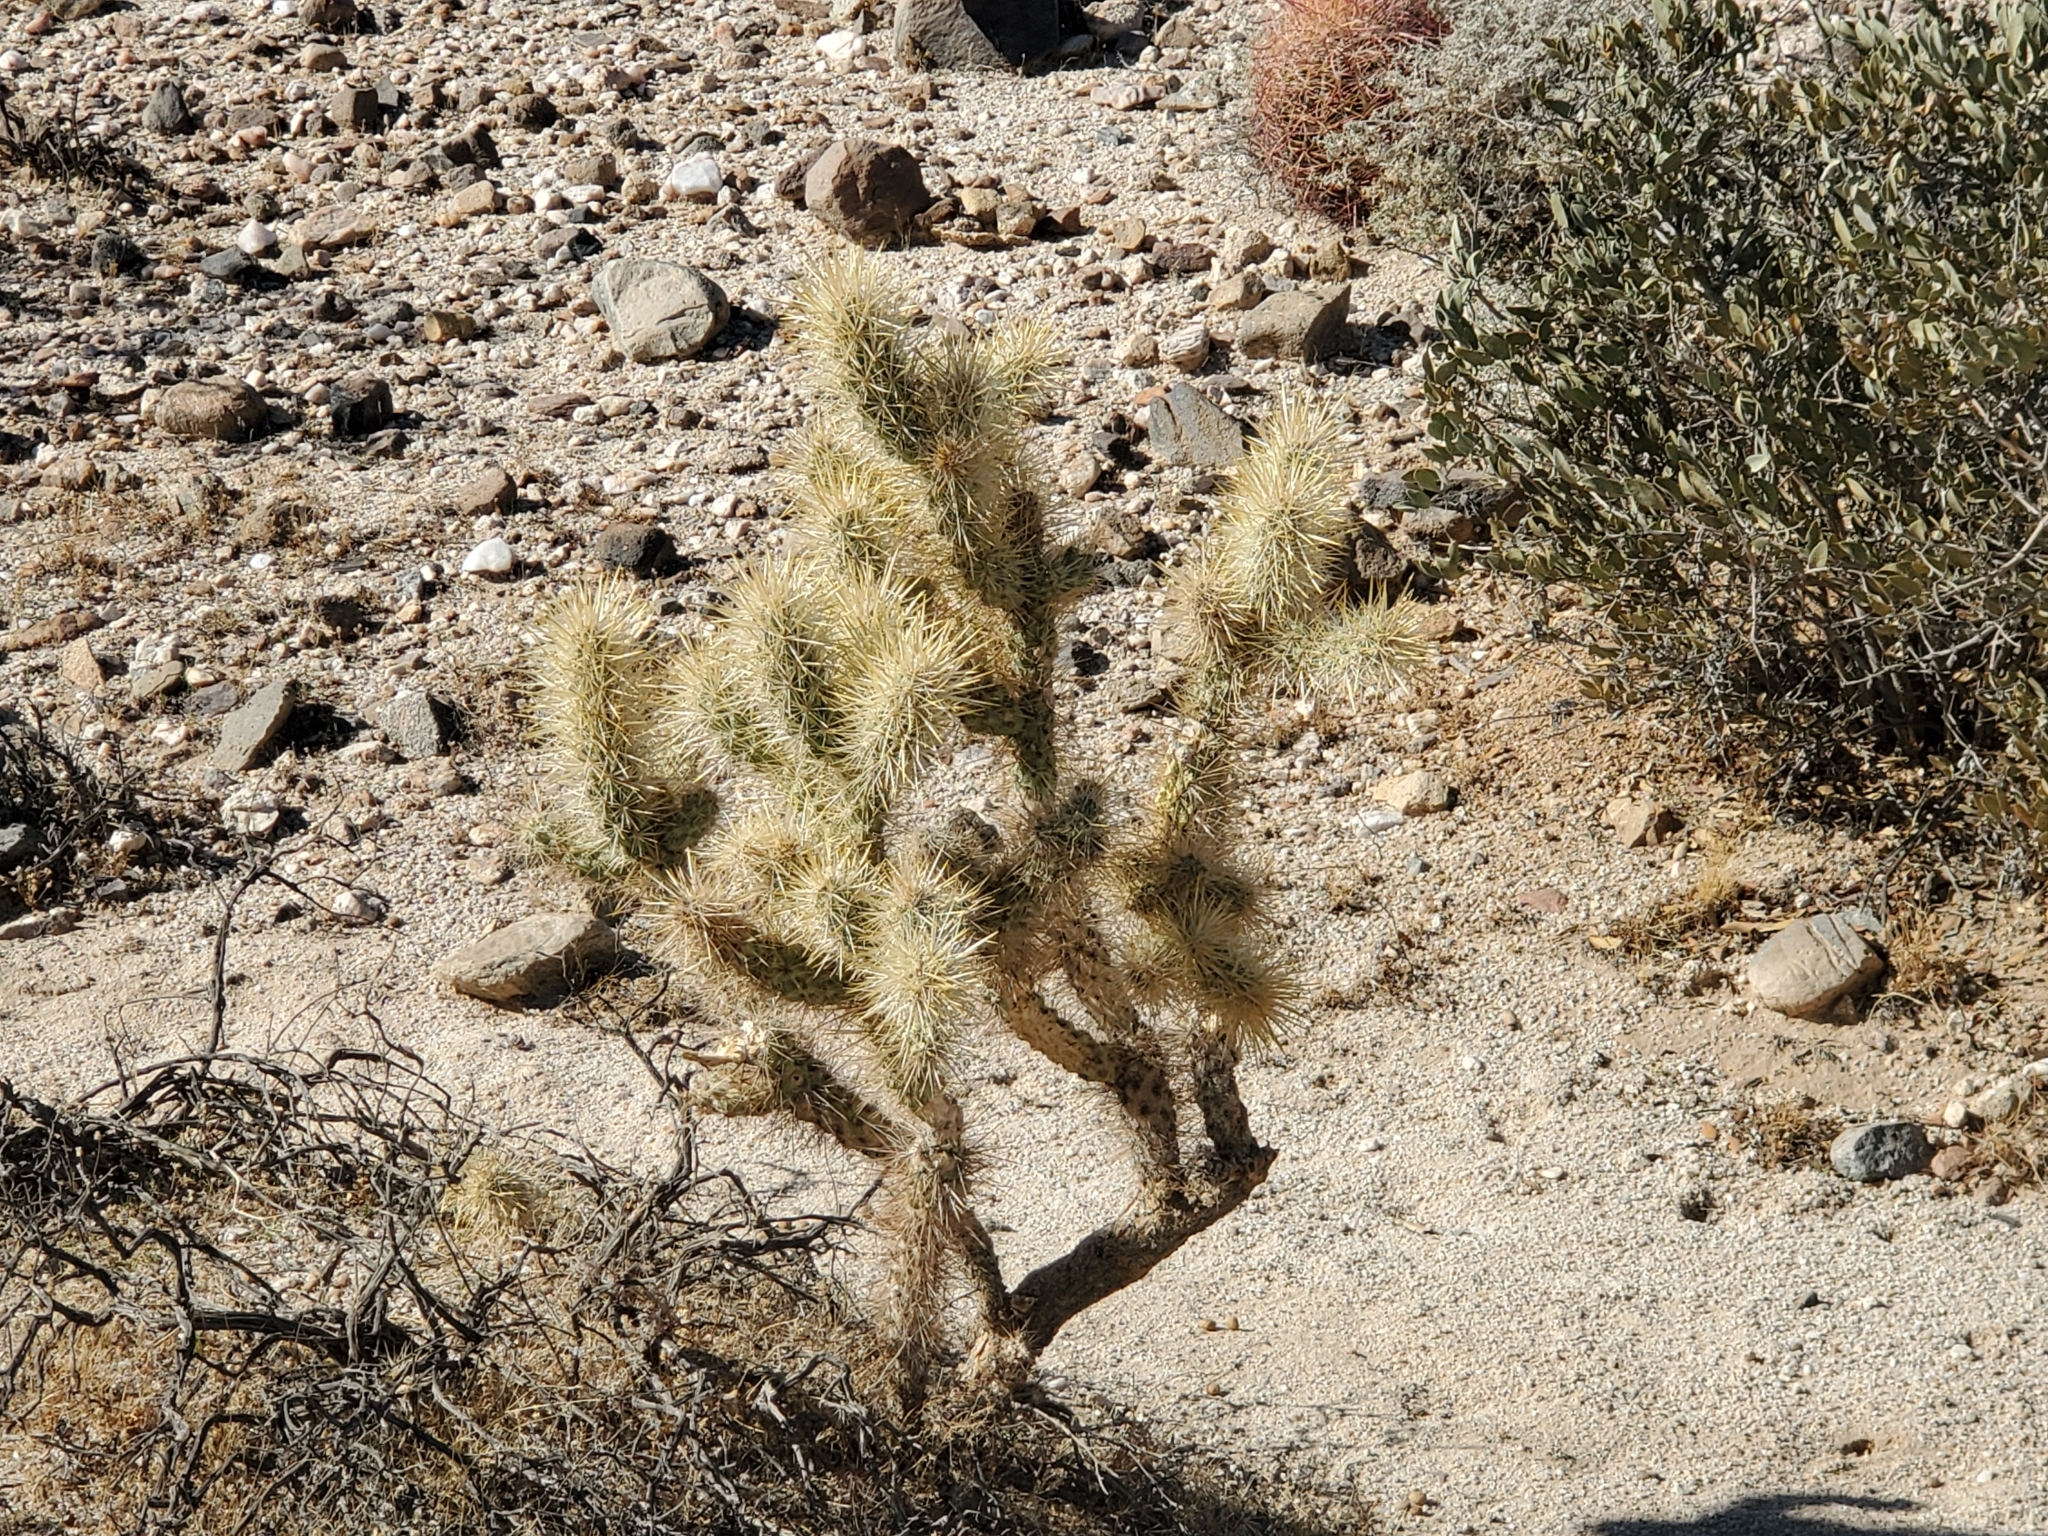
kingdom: Plantae
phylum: Tracheophyta
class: Magnoliopsida
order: Caryophyllales
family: Cactaceae
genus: Cylindropuntia
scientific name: Cylindropuntia echinocarpa
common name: Ground cholla
